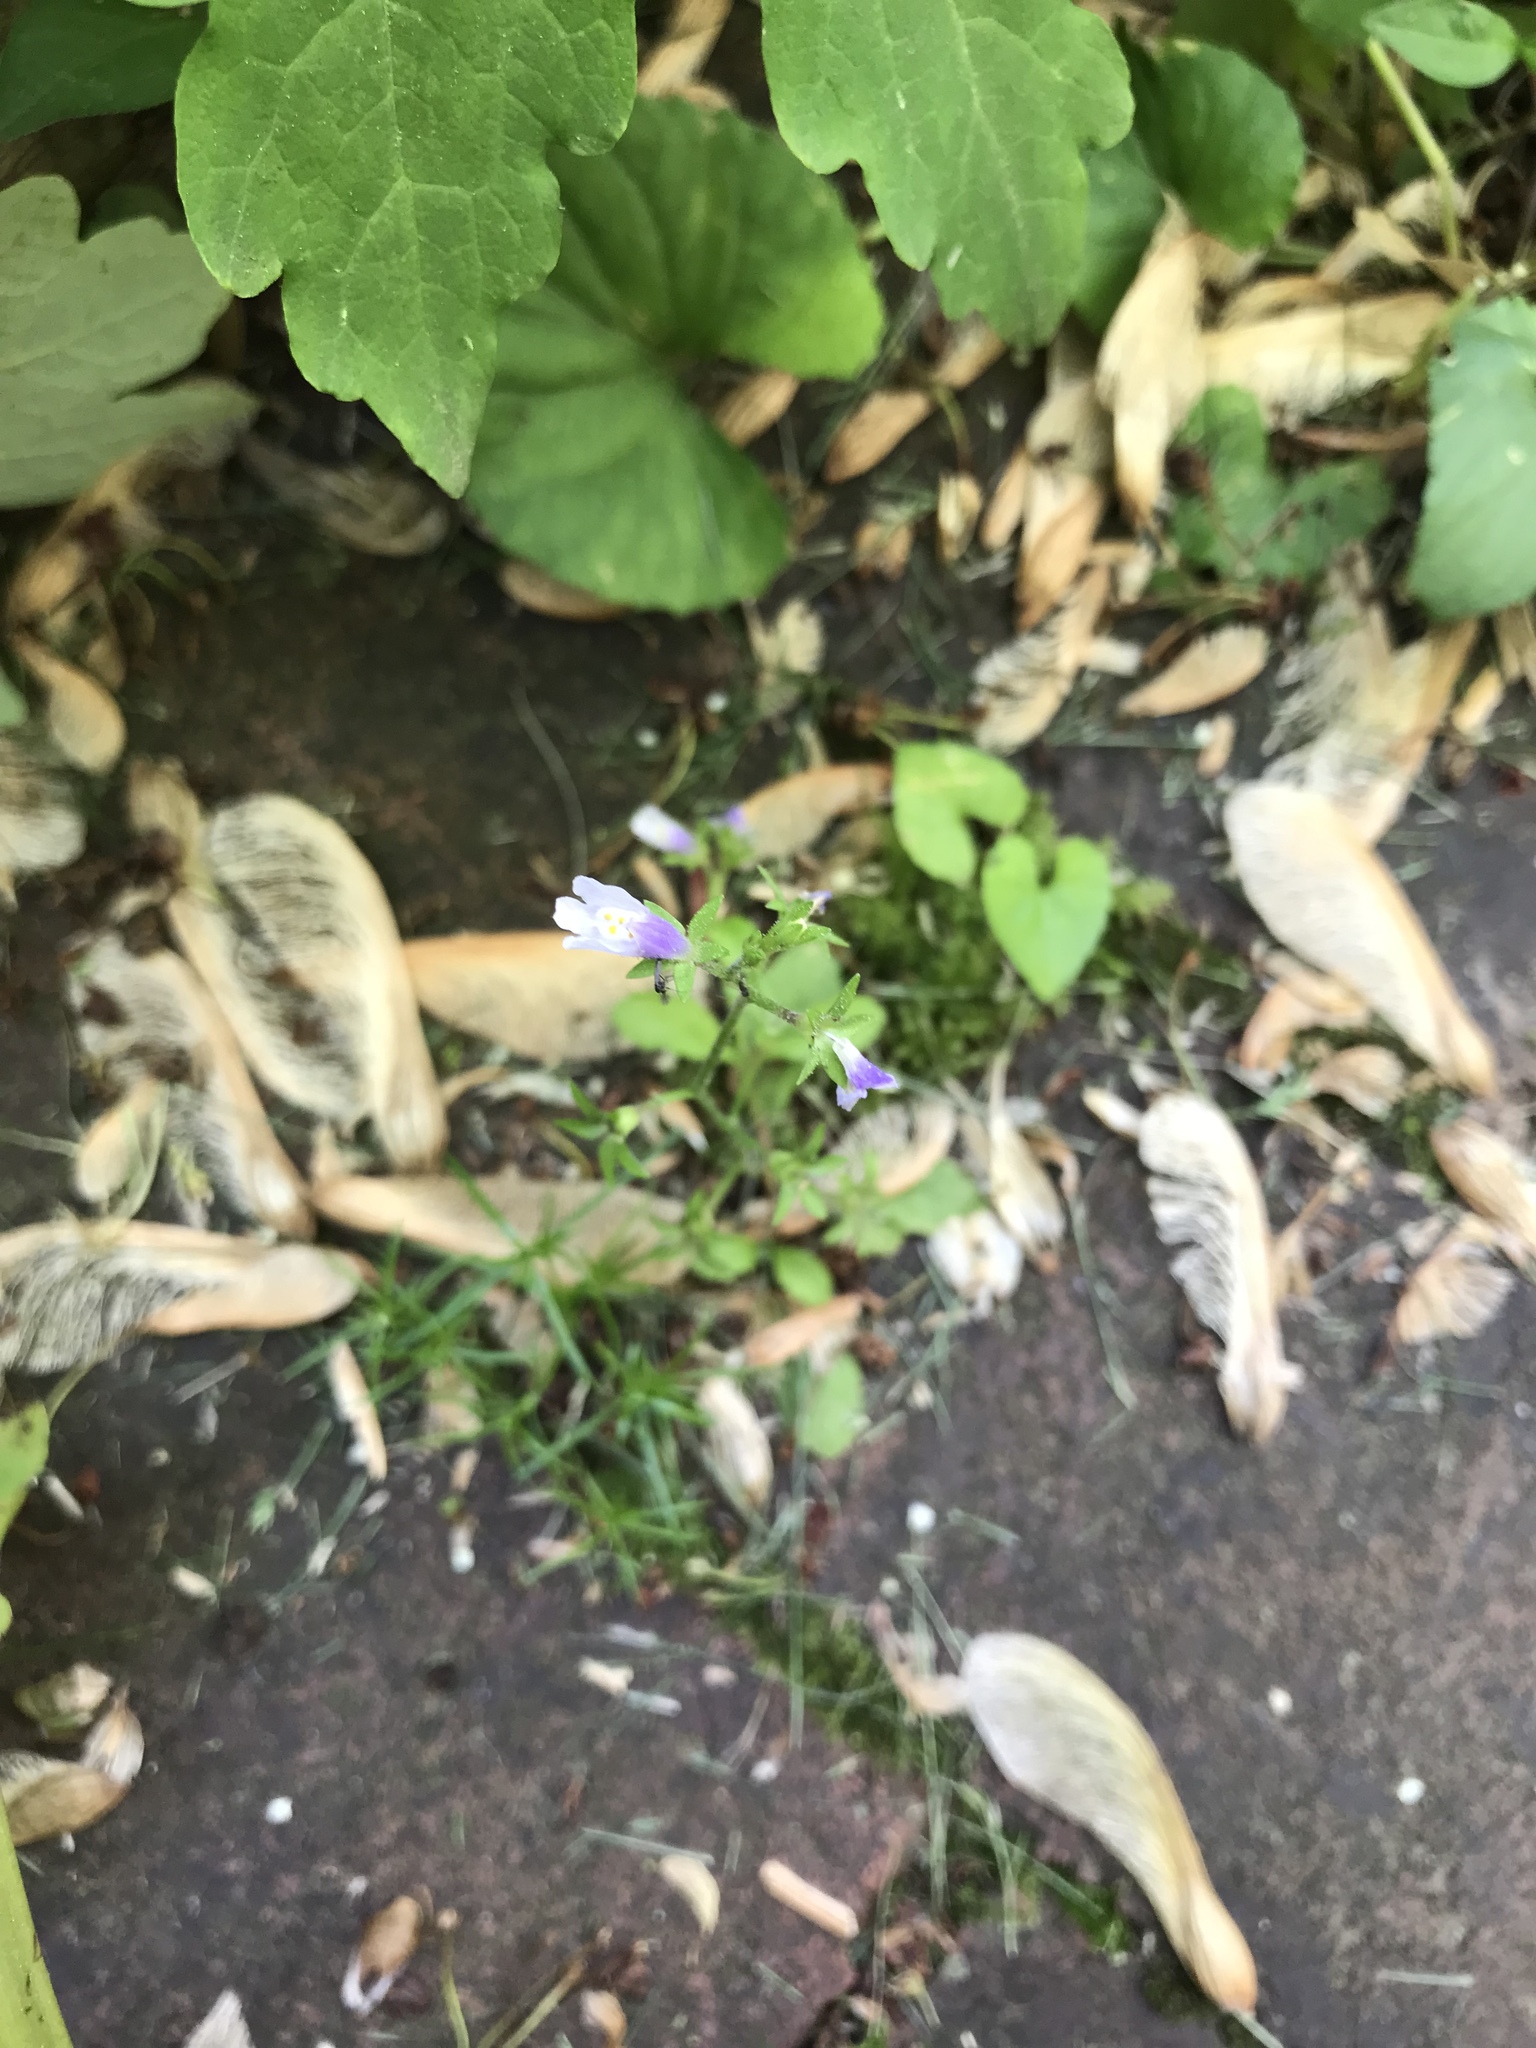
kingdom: Plantae
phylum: Tracheophyta
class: Magnoliopsida
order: Lamiales
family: Mazaceae
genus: Mazus
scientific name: Mazus pumilus
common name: Japanese mazus
